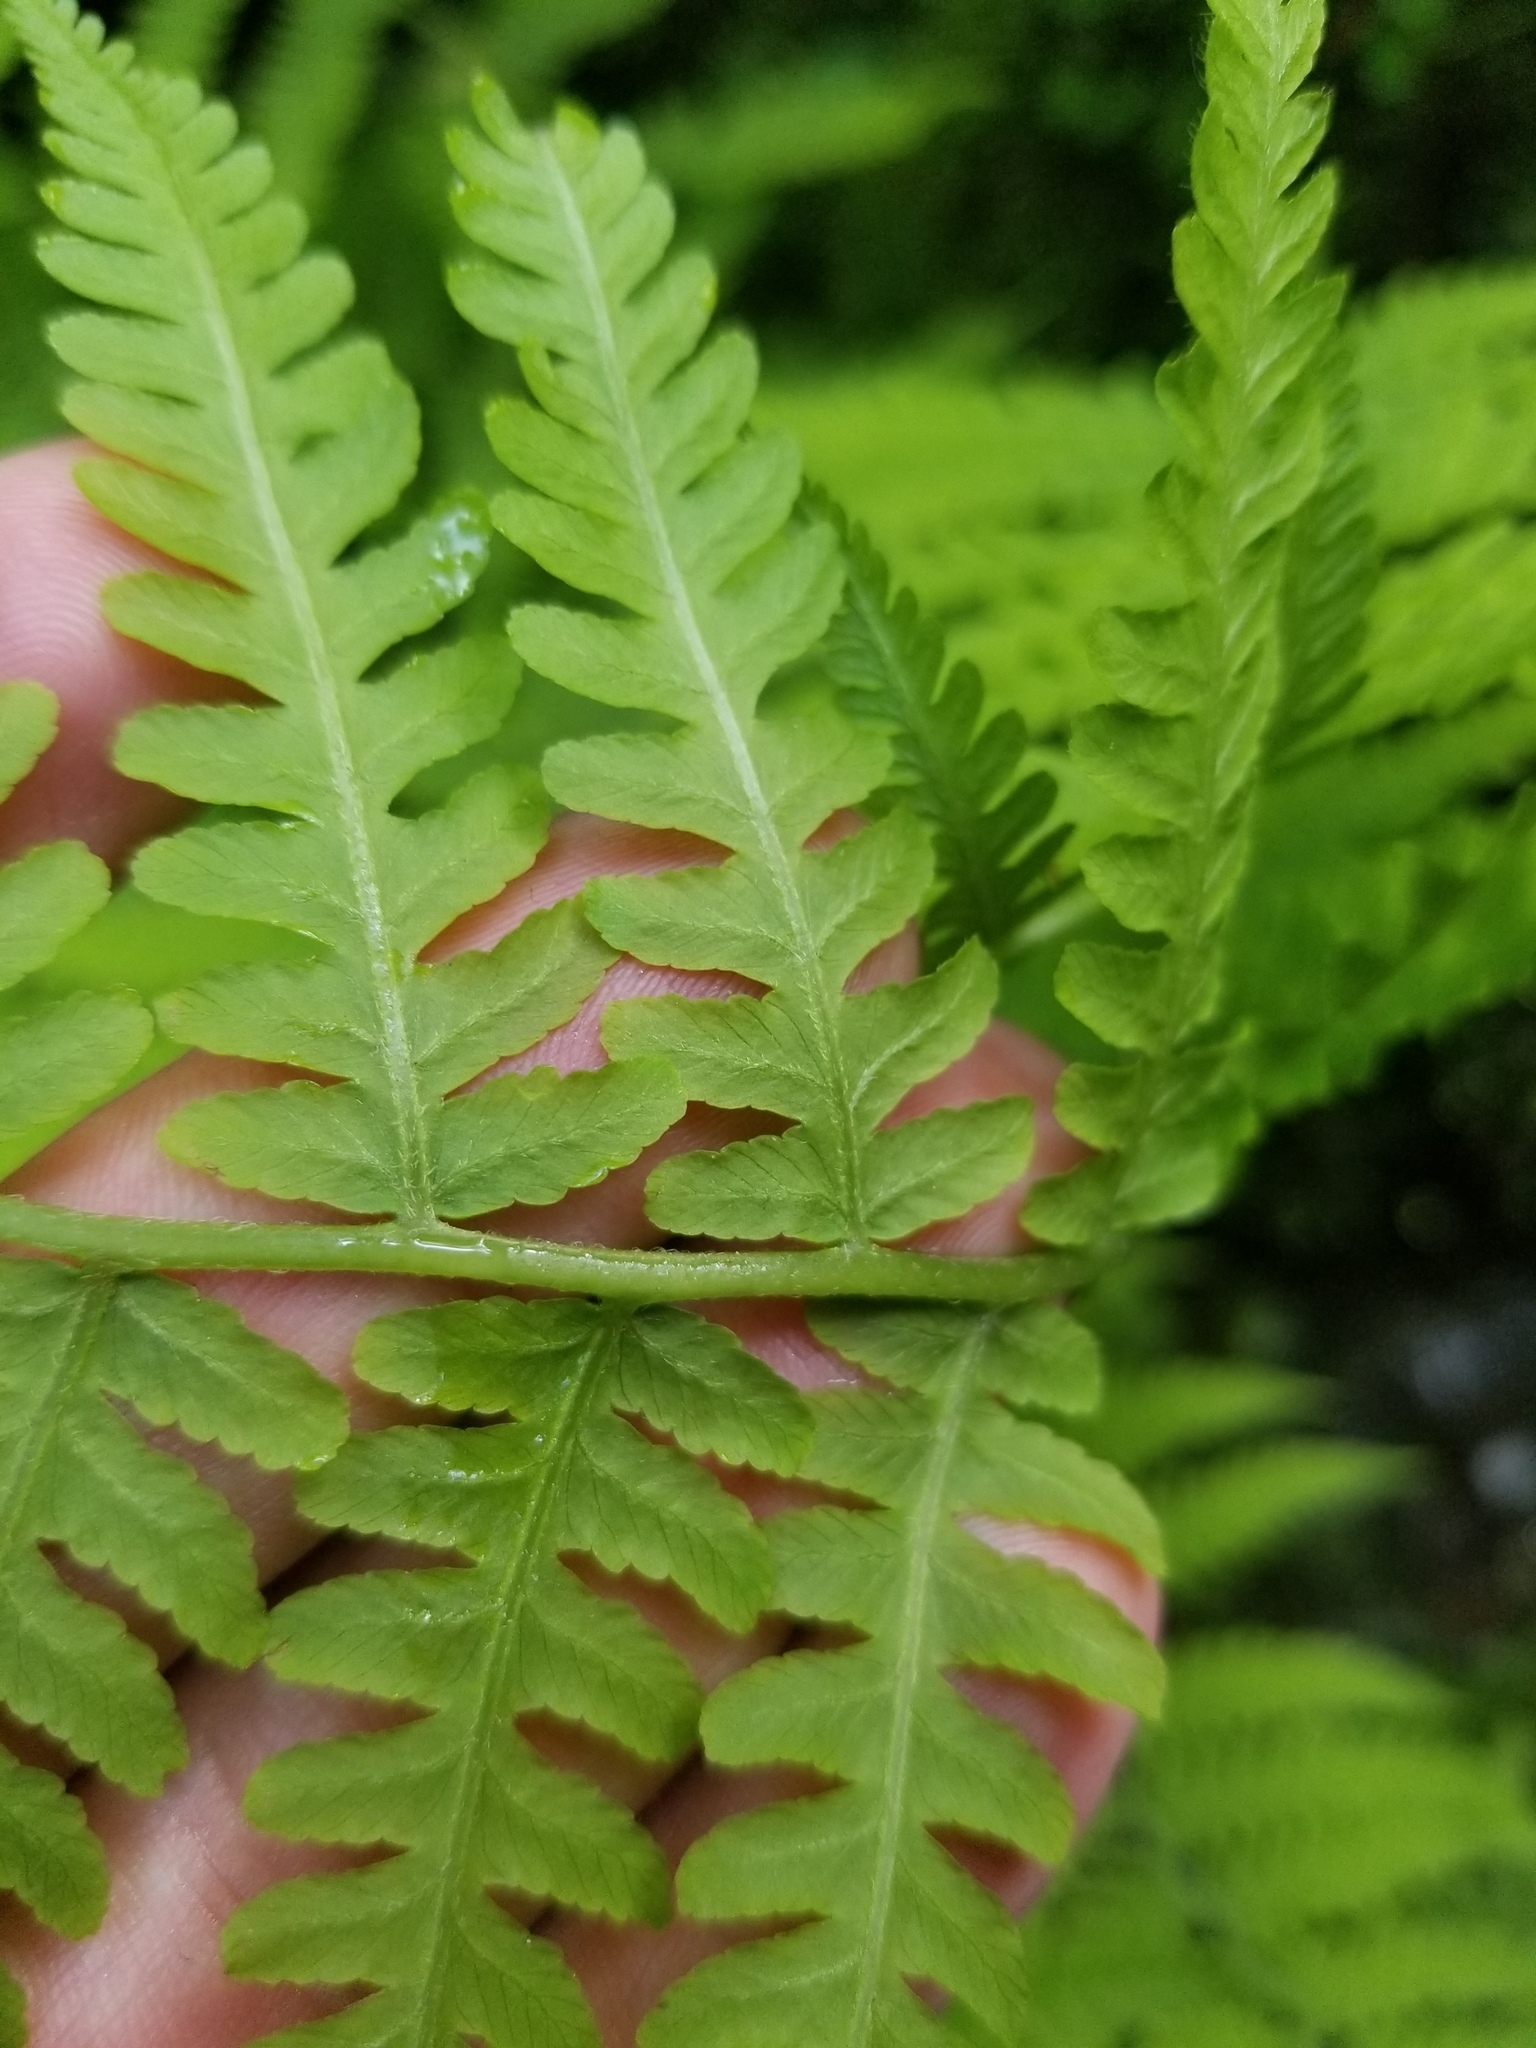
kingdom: Plantae
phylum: Tracheophyta
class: Polypodiopsida
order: Polypodiales
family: Athyriaceae
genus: Deparia
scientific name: Deparia acrostichoides
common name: Silver false spleenwort
